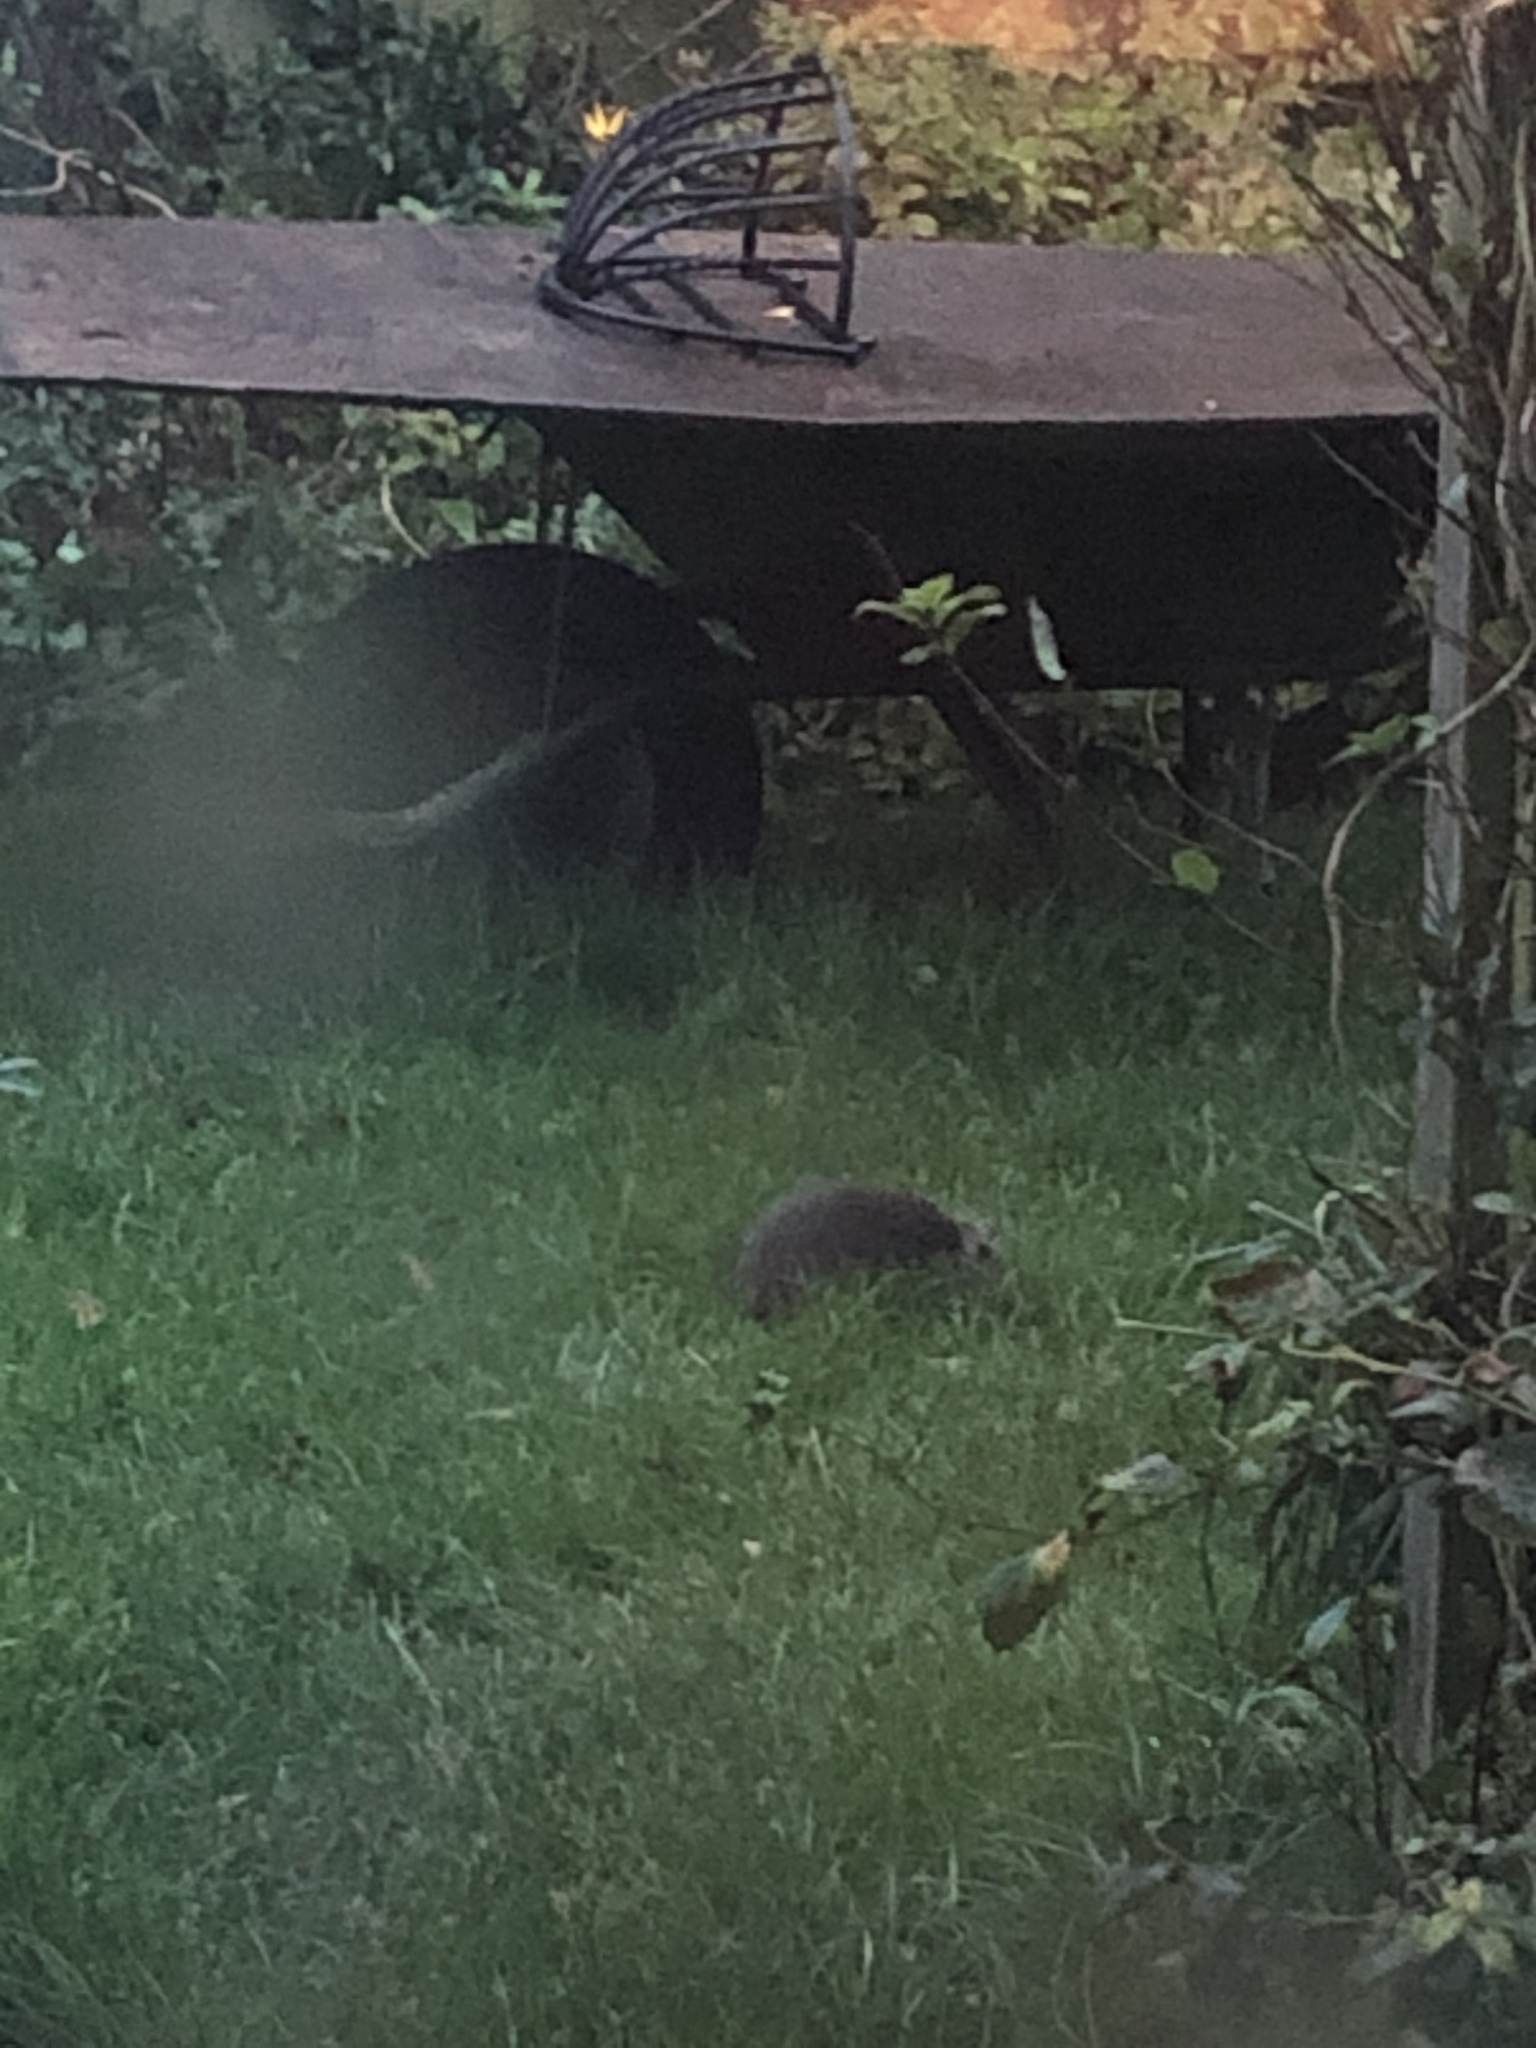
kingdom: Animalia
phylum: Chordata
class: Mammalia
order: Erinaceomorpha
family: Erinaceidae
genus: Erinaceus
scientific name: Erinaceus europaeus
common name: West european hedgehog
